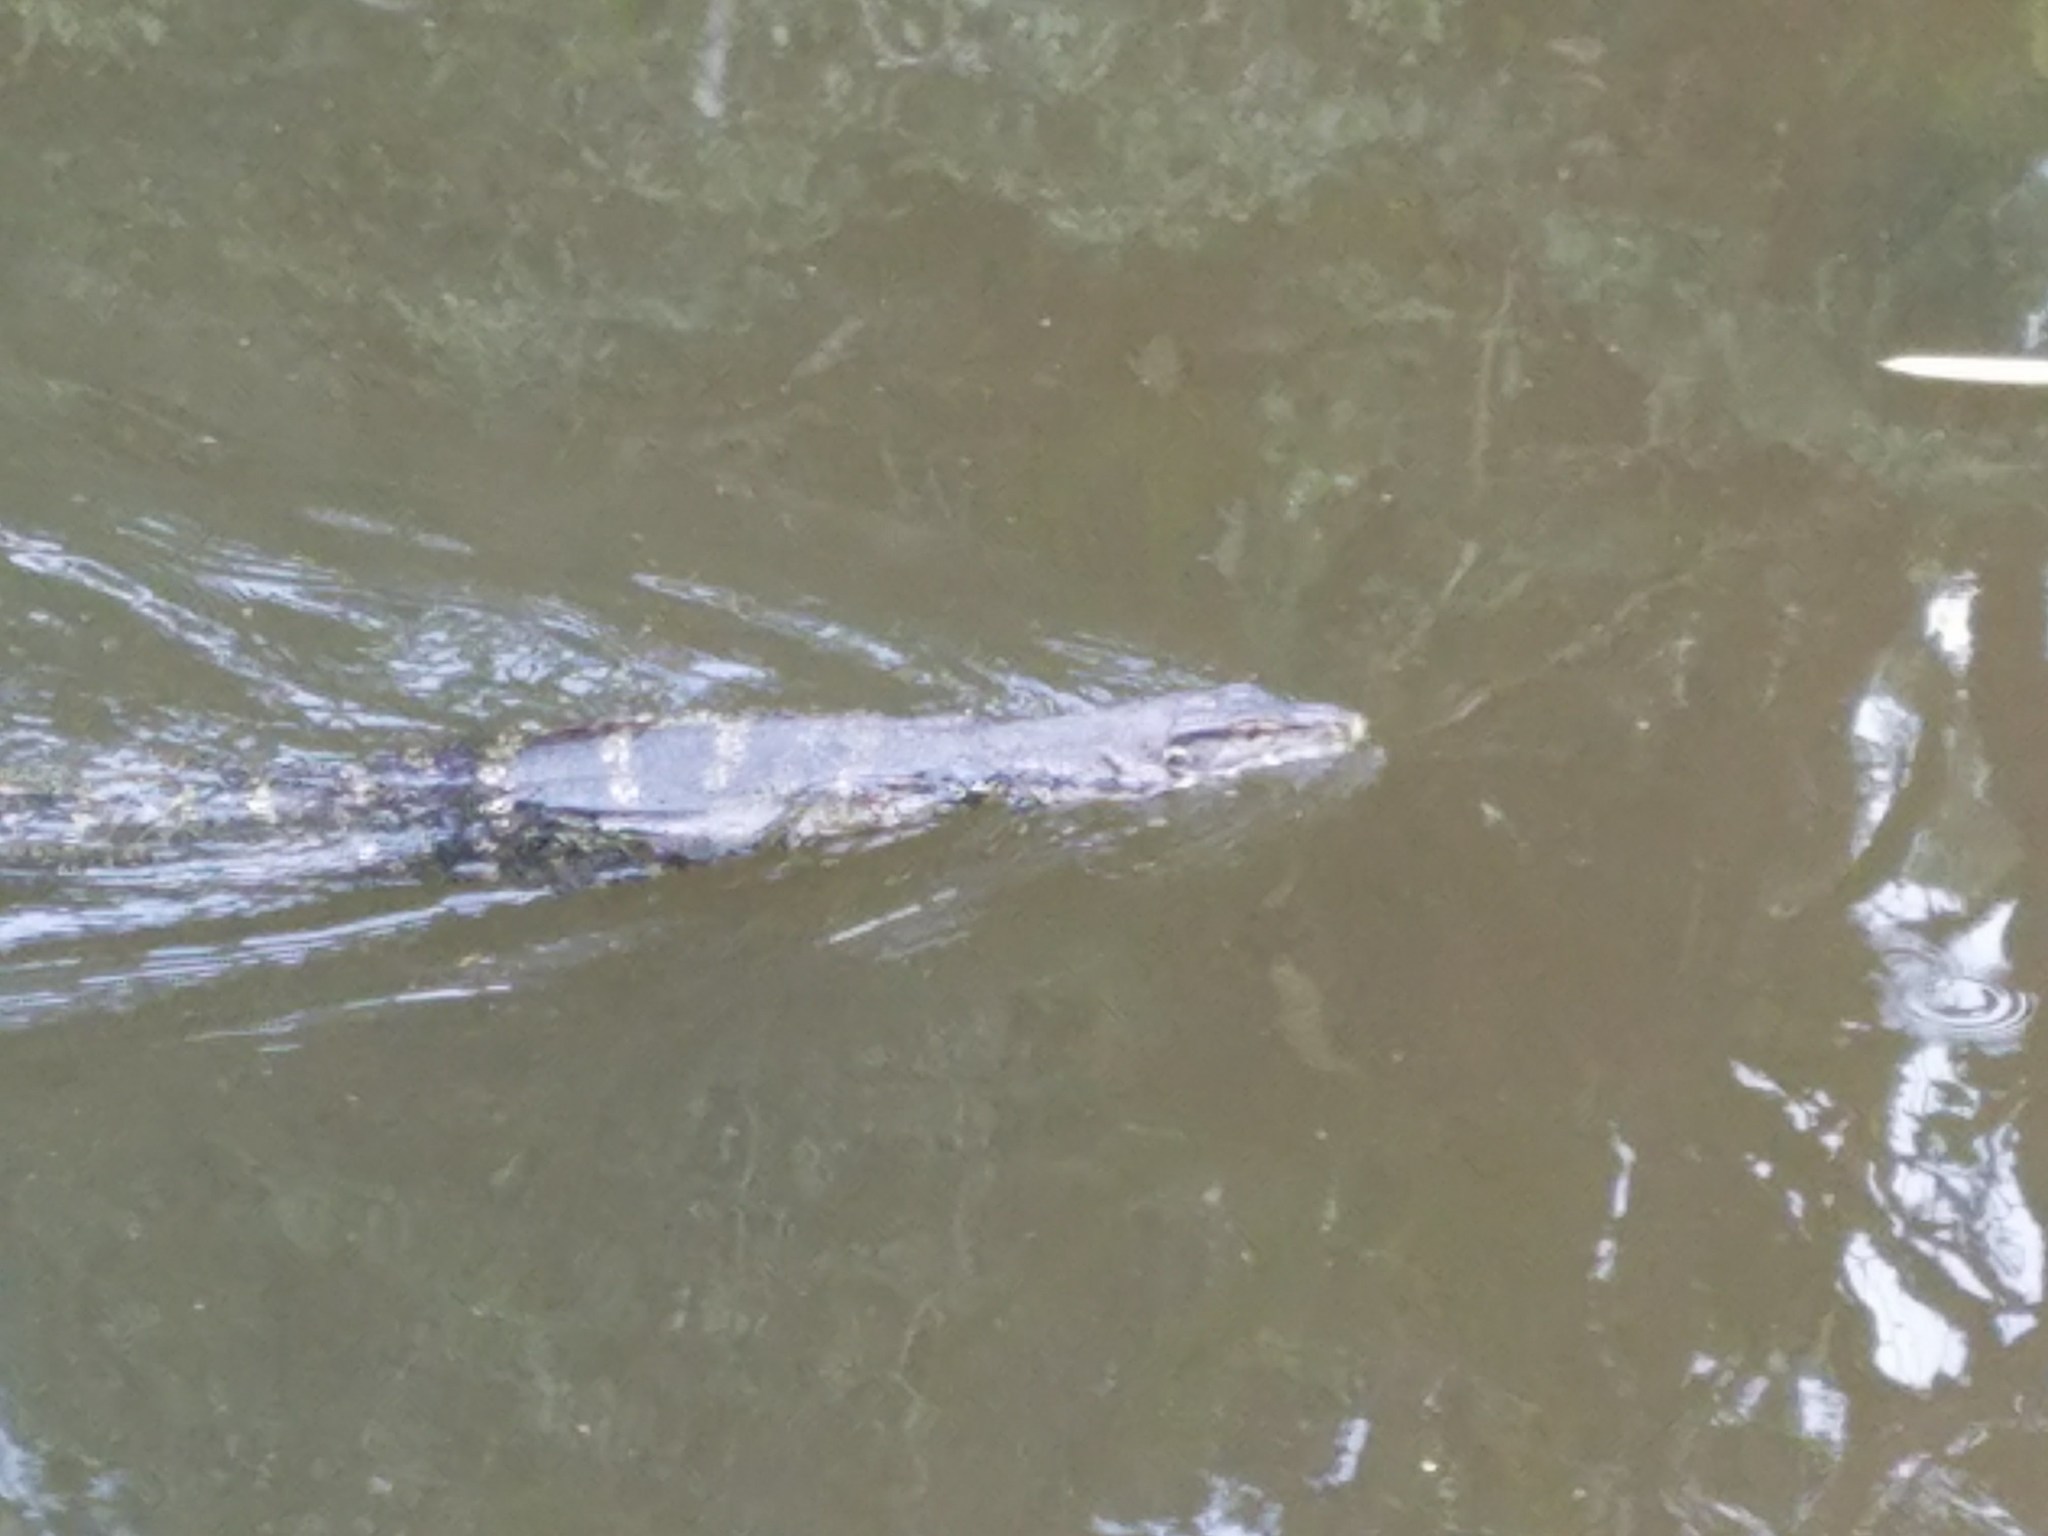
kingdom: Animalia
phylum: Chordata
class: Squamata
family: Varanidae
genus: Varanus
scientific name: Varanus salvator
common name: Common water monitor
